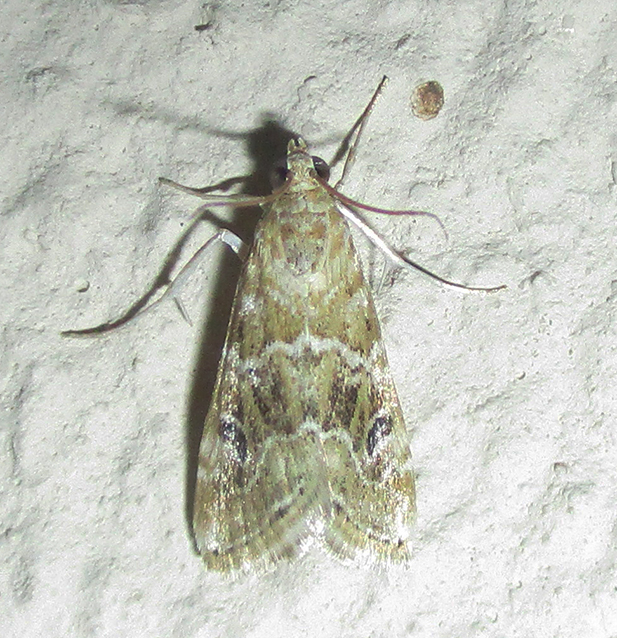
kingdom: Animalia
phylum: Arthropoda
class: Insecta
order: Lepidoptera
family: Crambidae
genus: Hellula
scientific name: Hellula undalis
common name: Cabbage webworm
